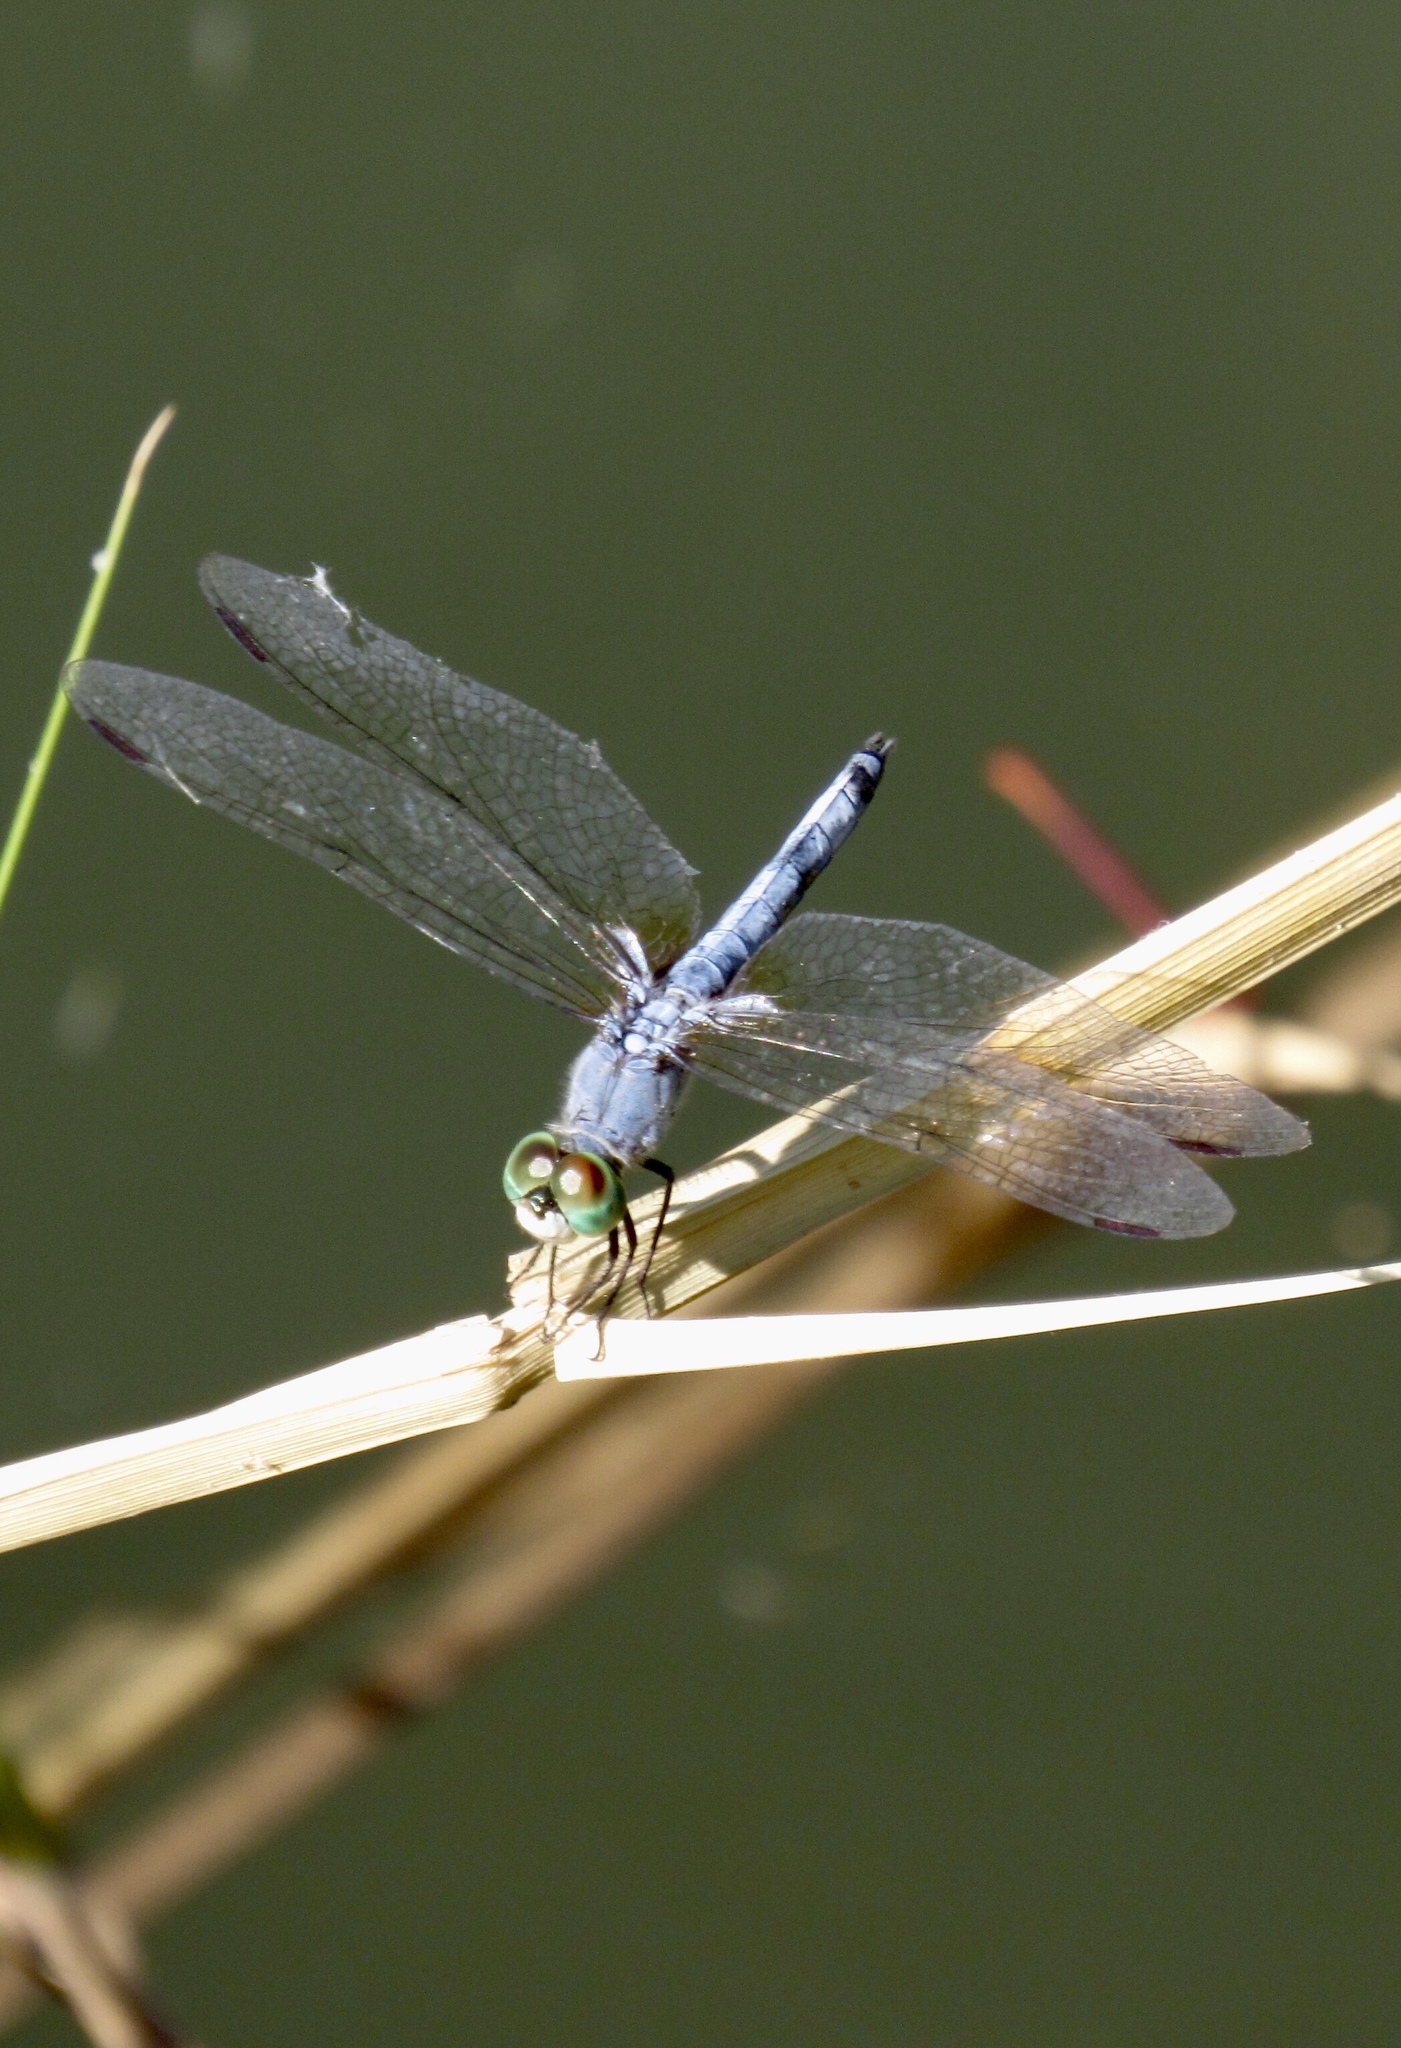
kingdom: Animalia
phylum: Arthropoda
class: Insecta
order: Odonata
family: Libellulidae
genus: Pachydiplax
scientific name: Pachydiplax longipennis
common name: Blue dasher
